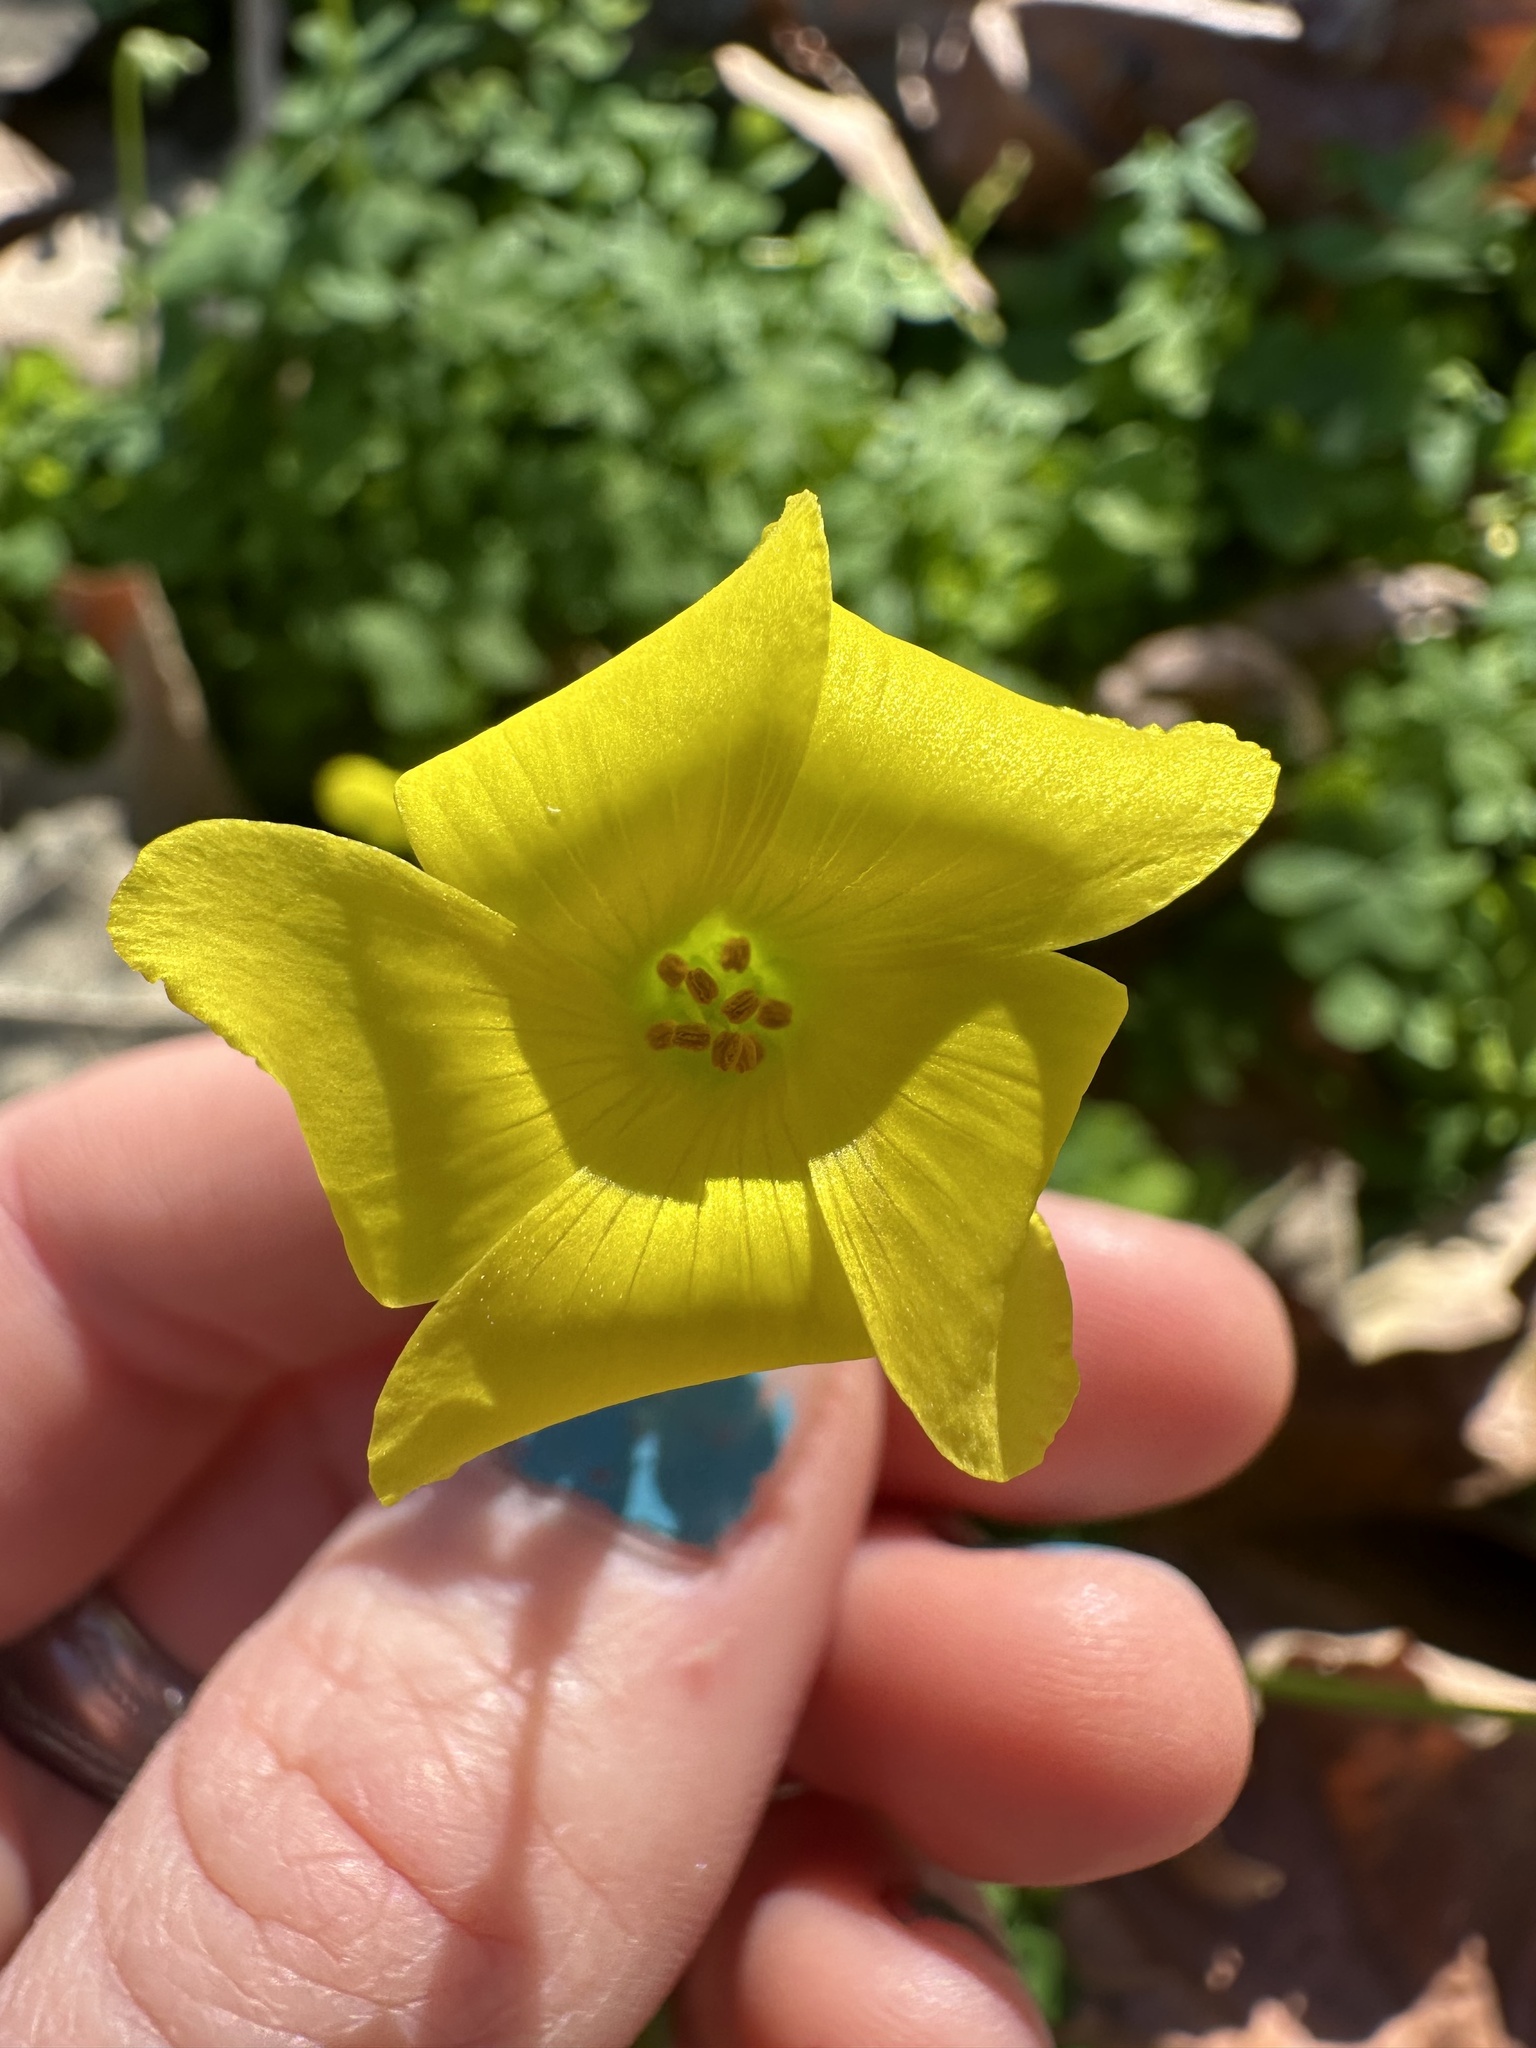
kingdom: Plantae
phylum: Tracheophyta
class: Magnoliopsida
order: Oxalidales
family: Oxalidaceae
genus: Oxalis
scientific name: Oxalis pes-caprae
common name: Bermuda-buttercup
